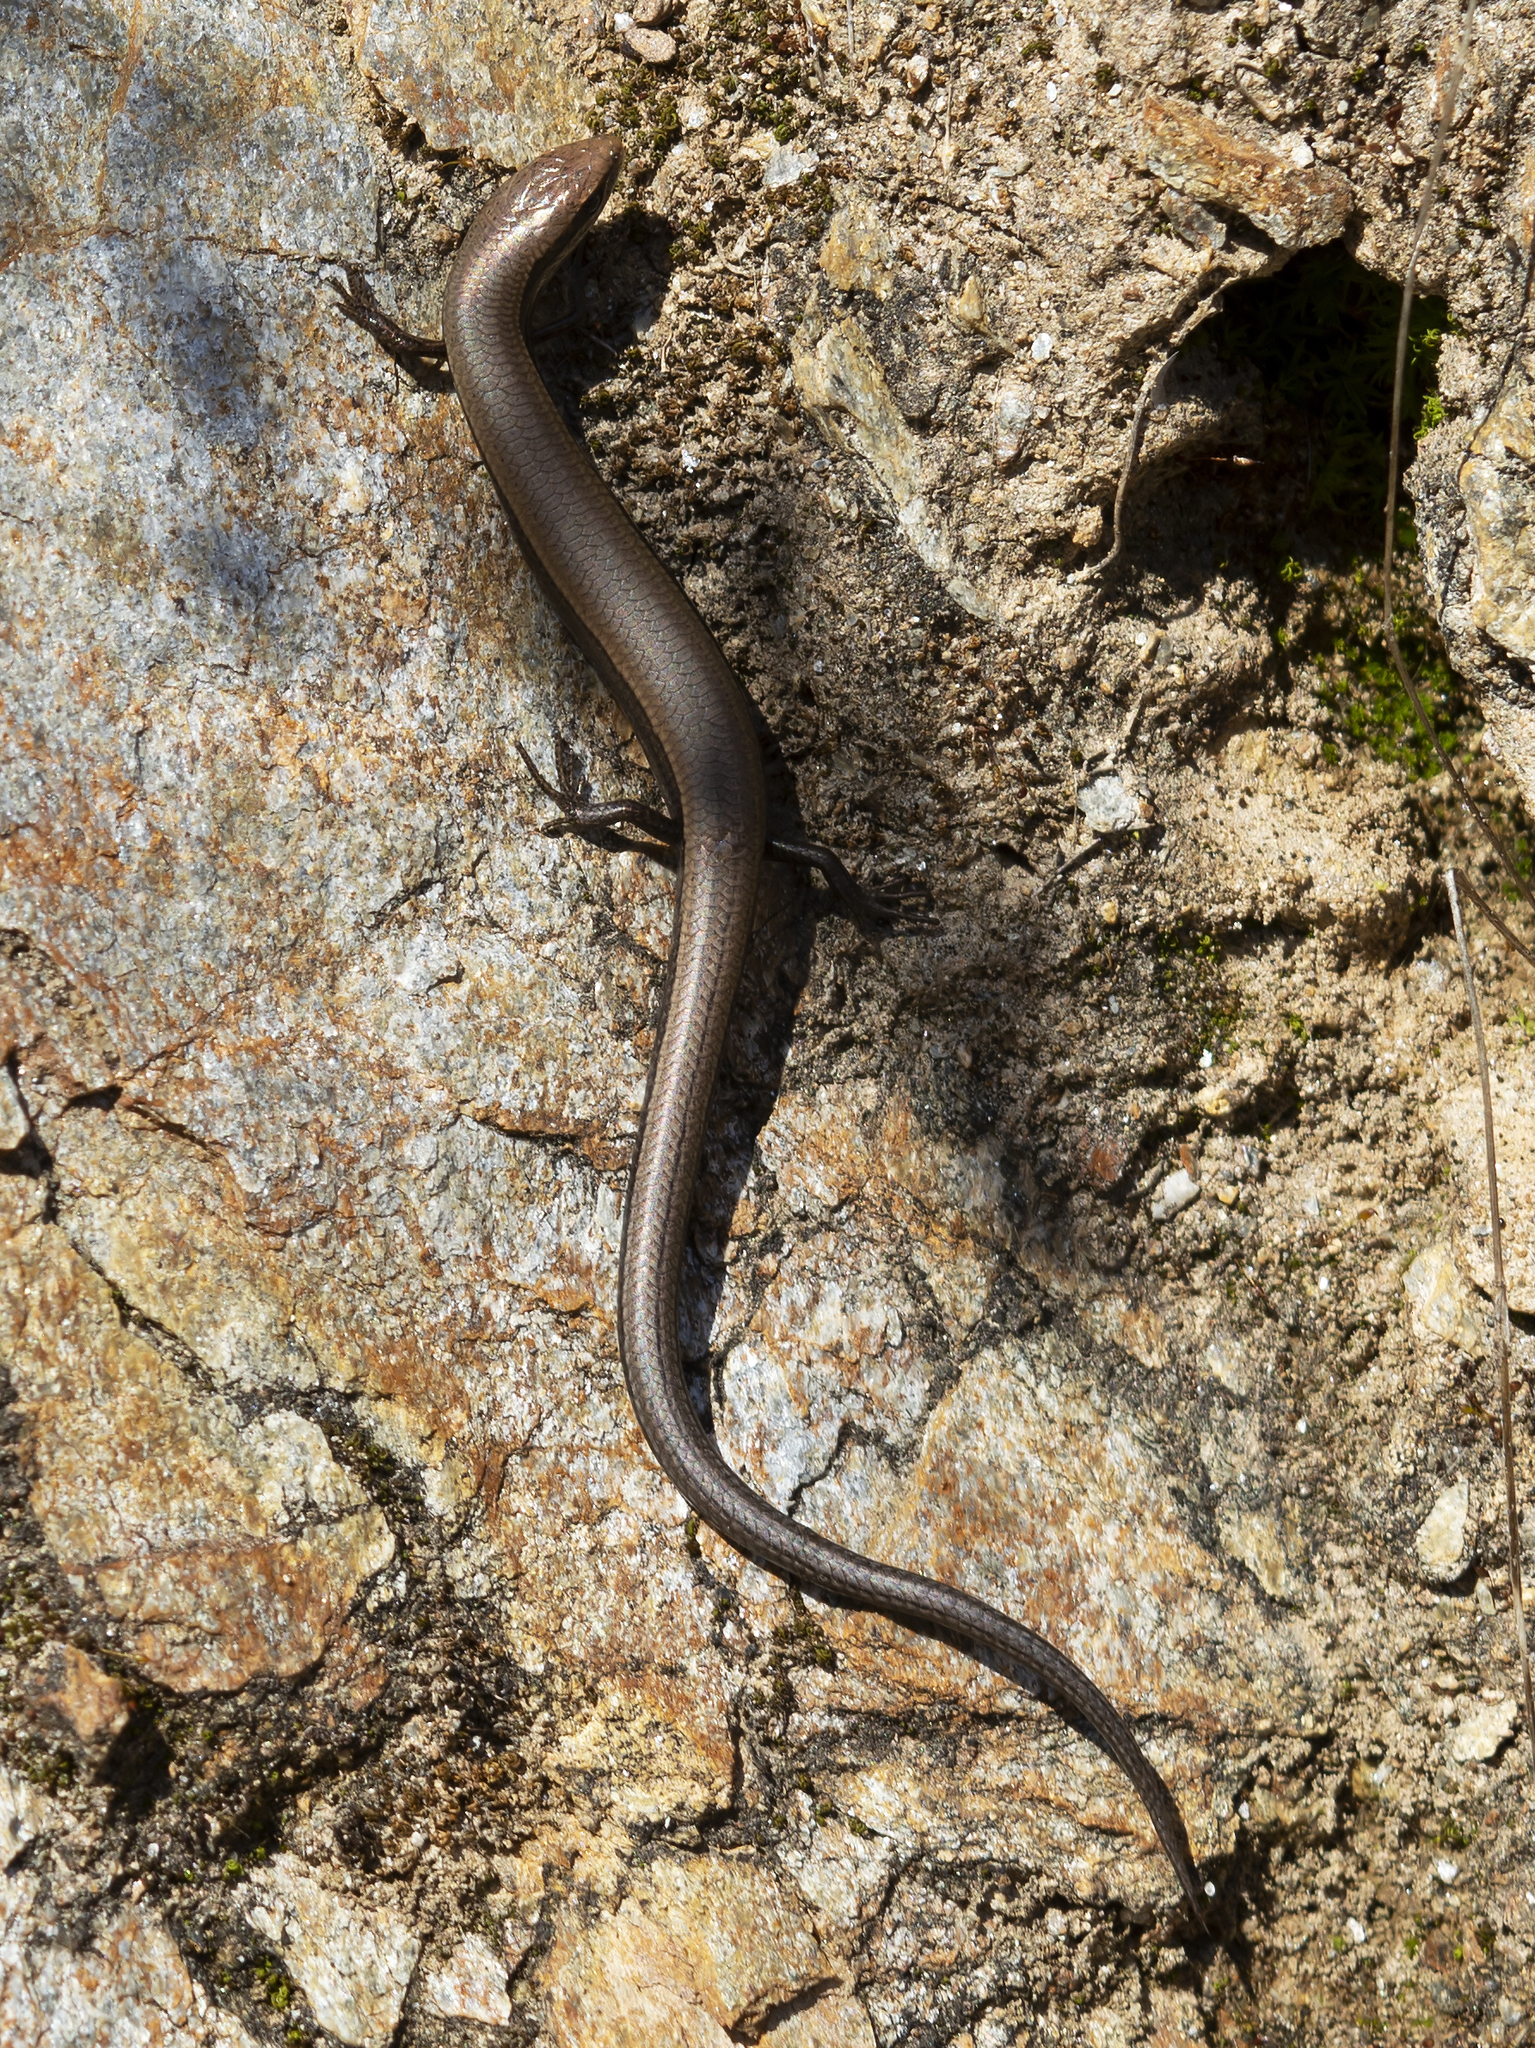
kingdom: Animalia
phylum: Chordata
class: Squamata
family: Scincidae
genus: Ablepharus
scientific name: Ablepharus kitaibelii
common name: Juniper skink
